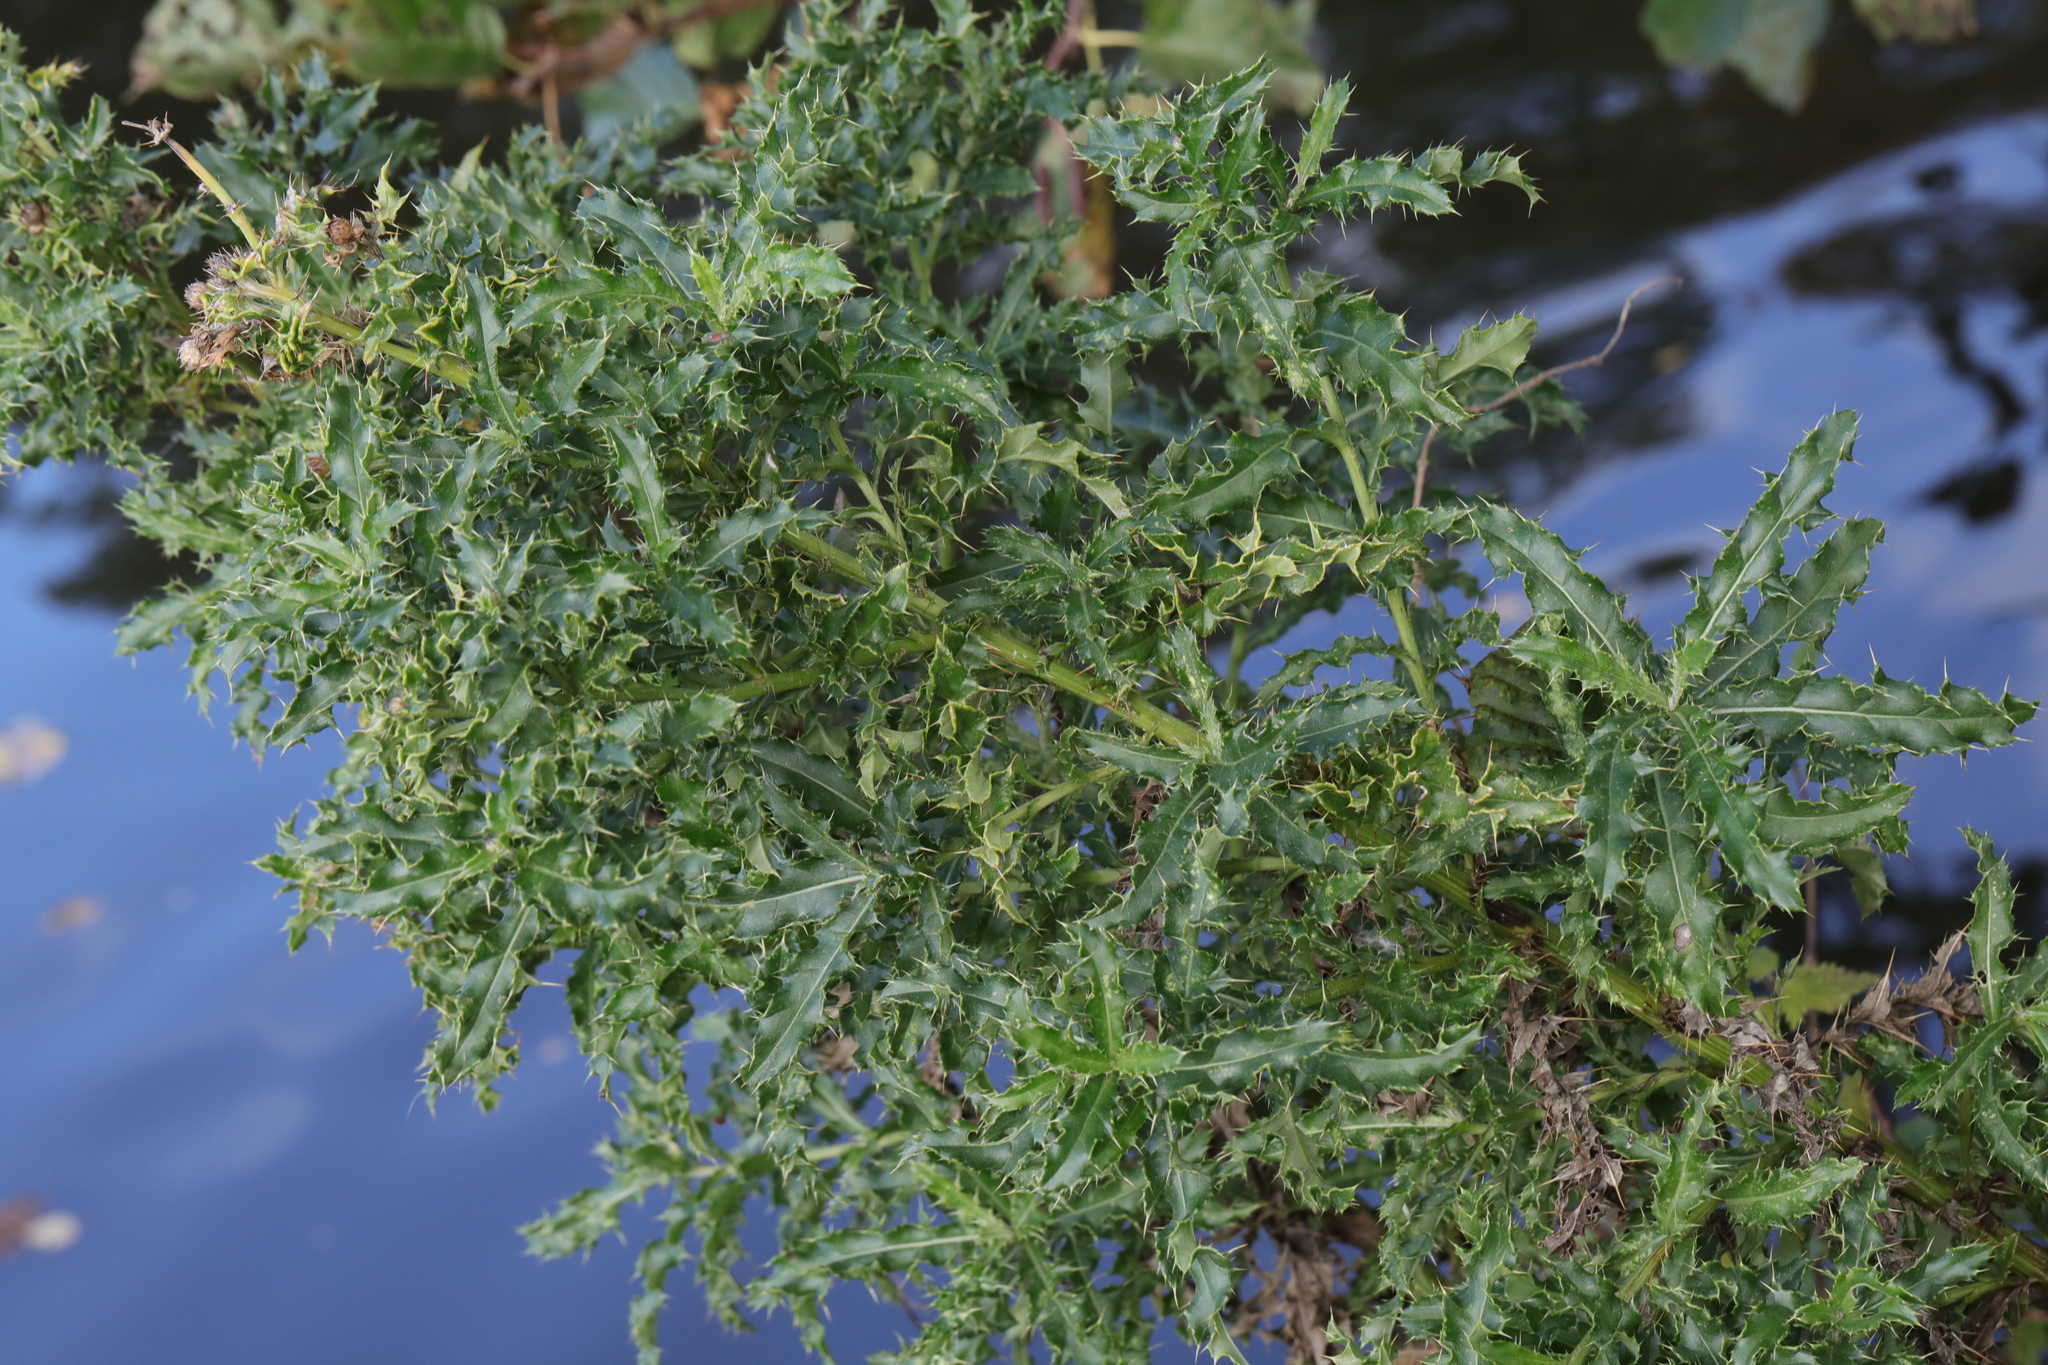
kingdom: Plantae
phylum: Tracheophyta
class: Magnoliopsida
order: Asterales
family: Asteraceae
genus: Cirsium
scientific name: Cirsium arvense
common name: Creeping thistle
